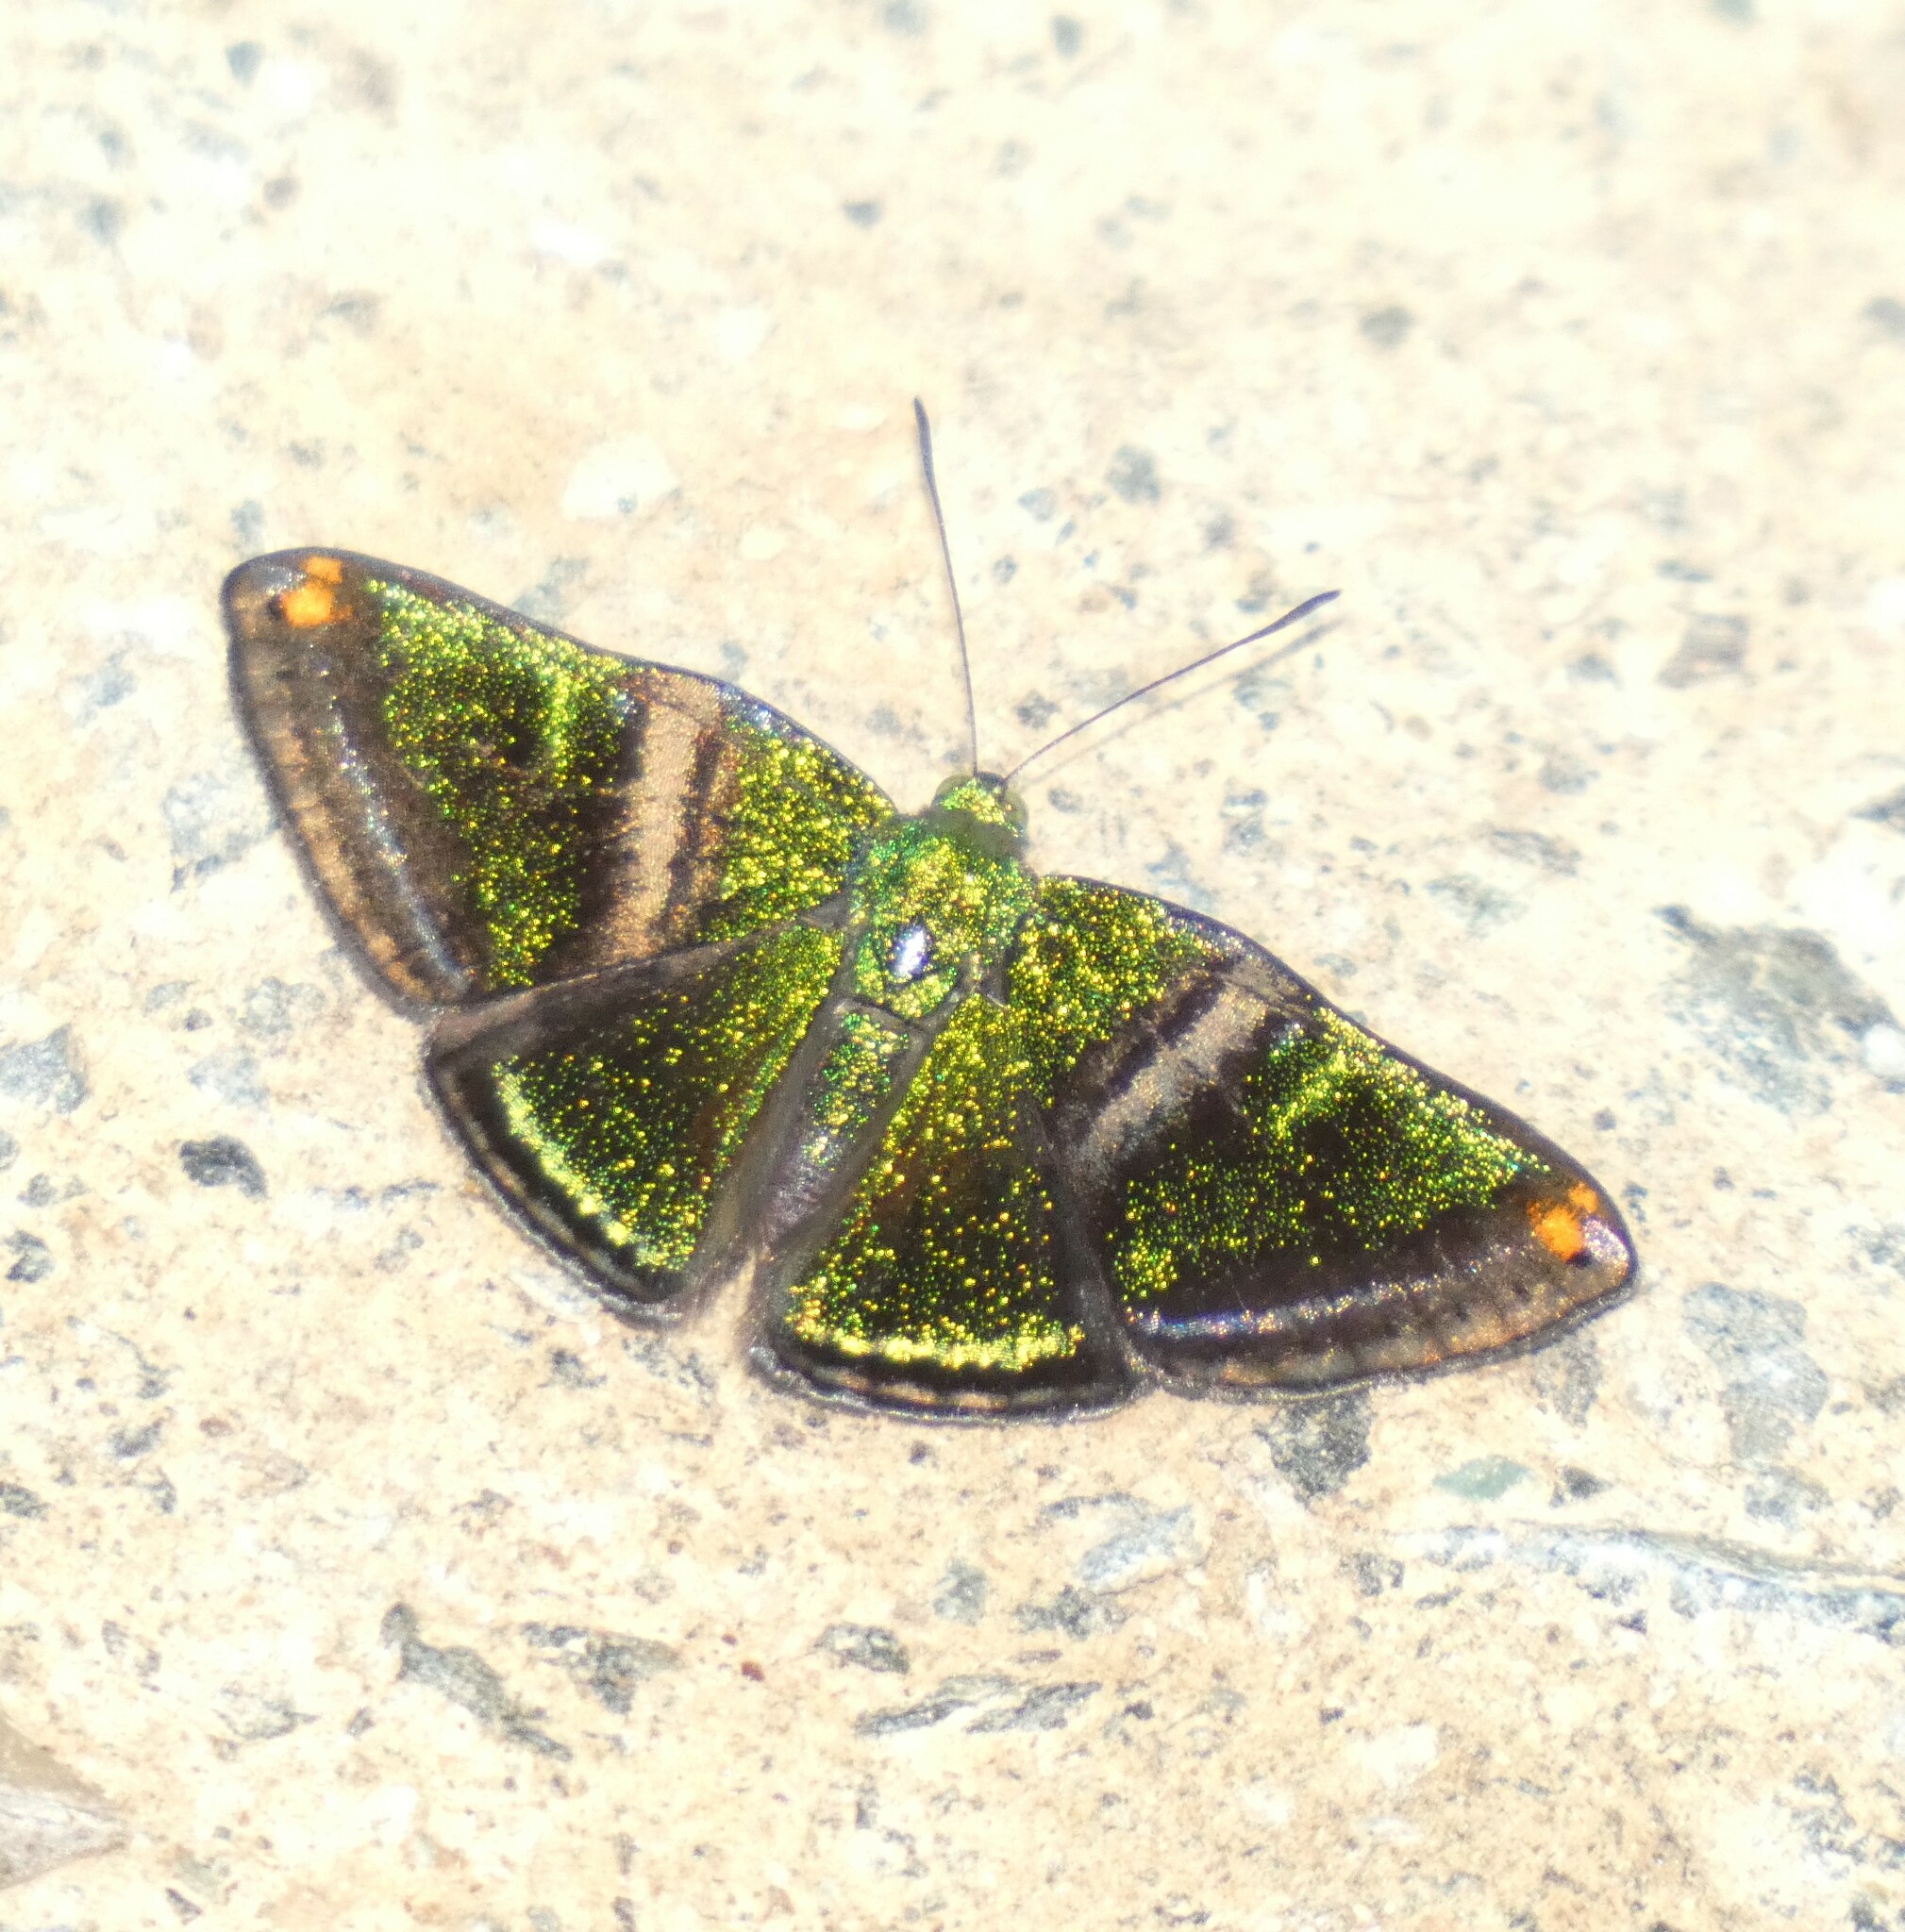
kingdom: Animalia
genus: Caria
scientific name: Caria plutargus
